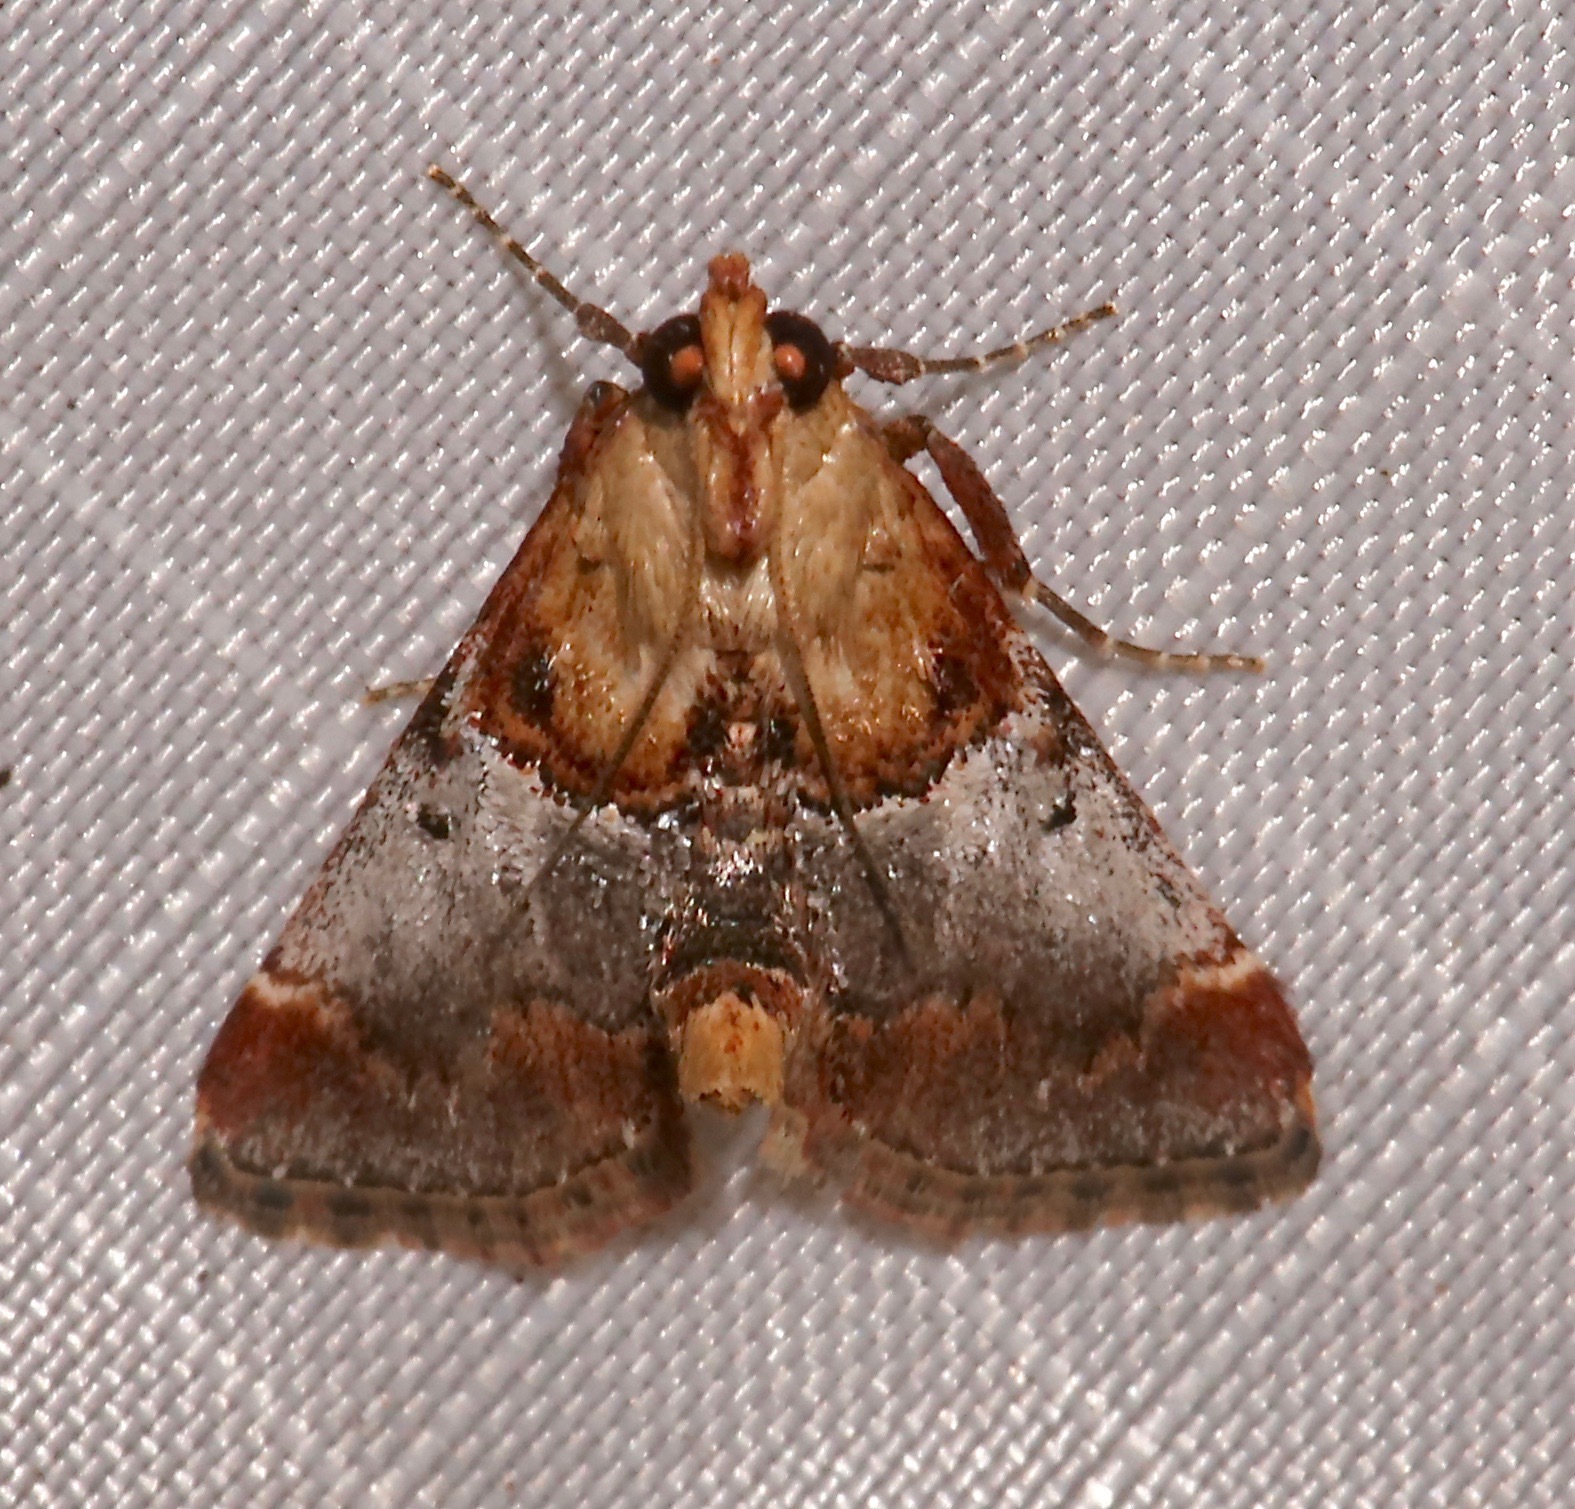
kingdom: Animalia
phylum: Arthropoda
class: Insecta
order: Lepidoptera
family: Pyralidae
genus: Cacozelia
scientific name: Cacozelia basiochrealis
